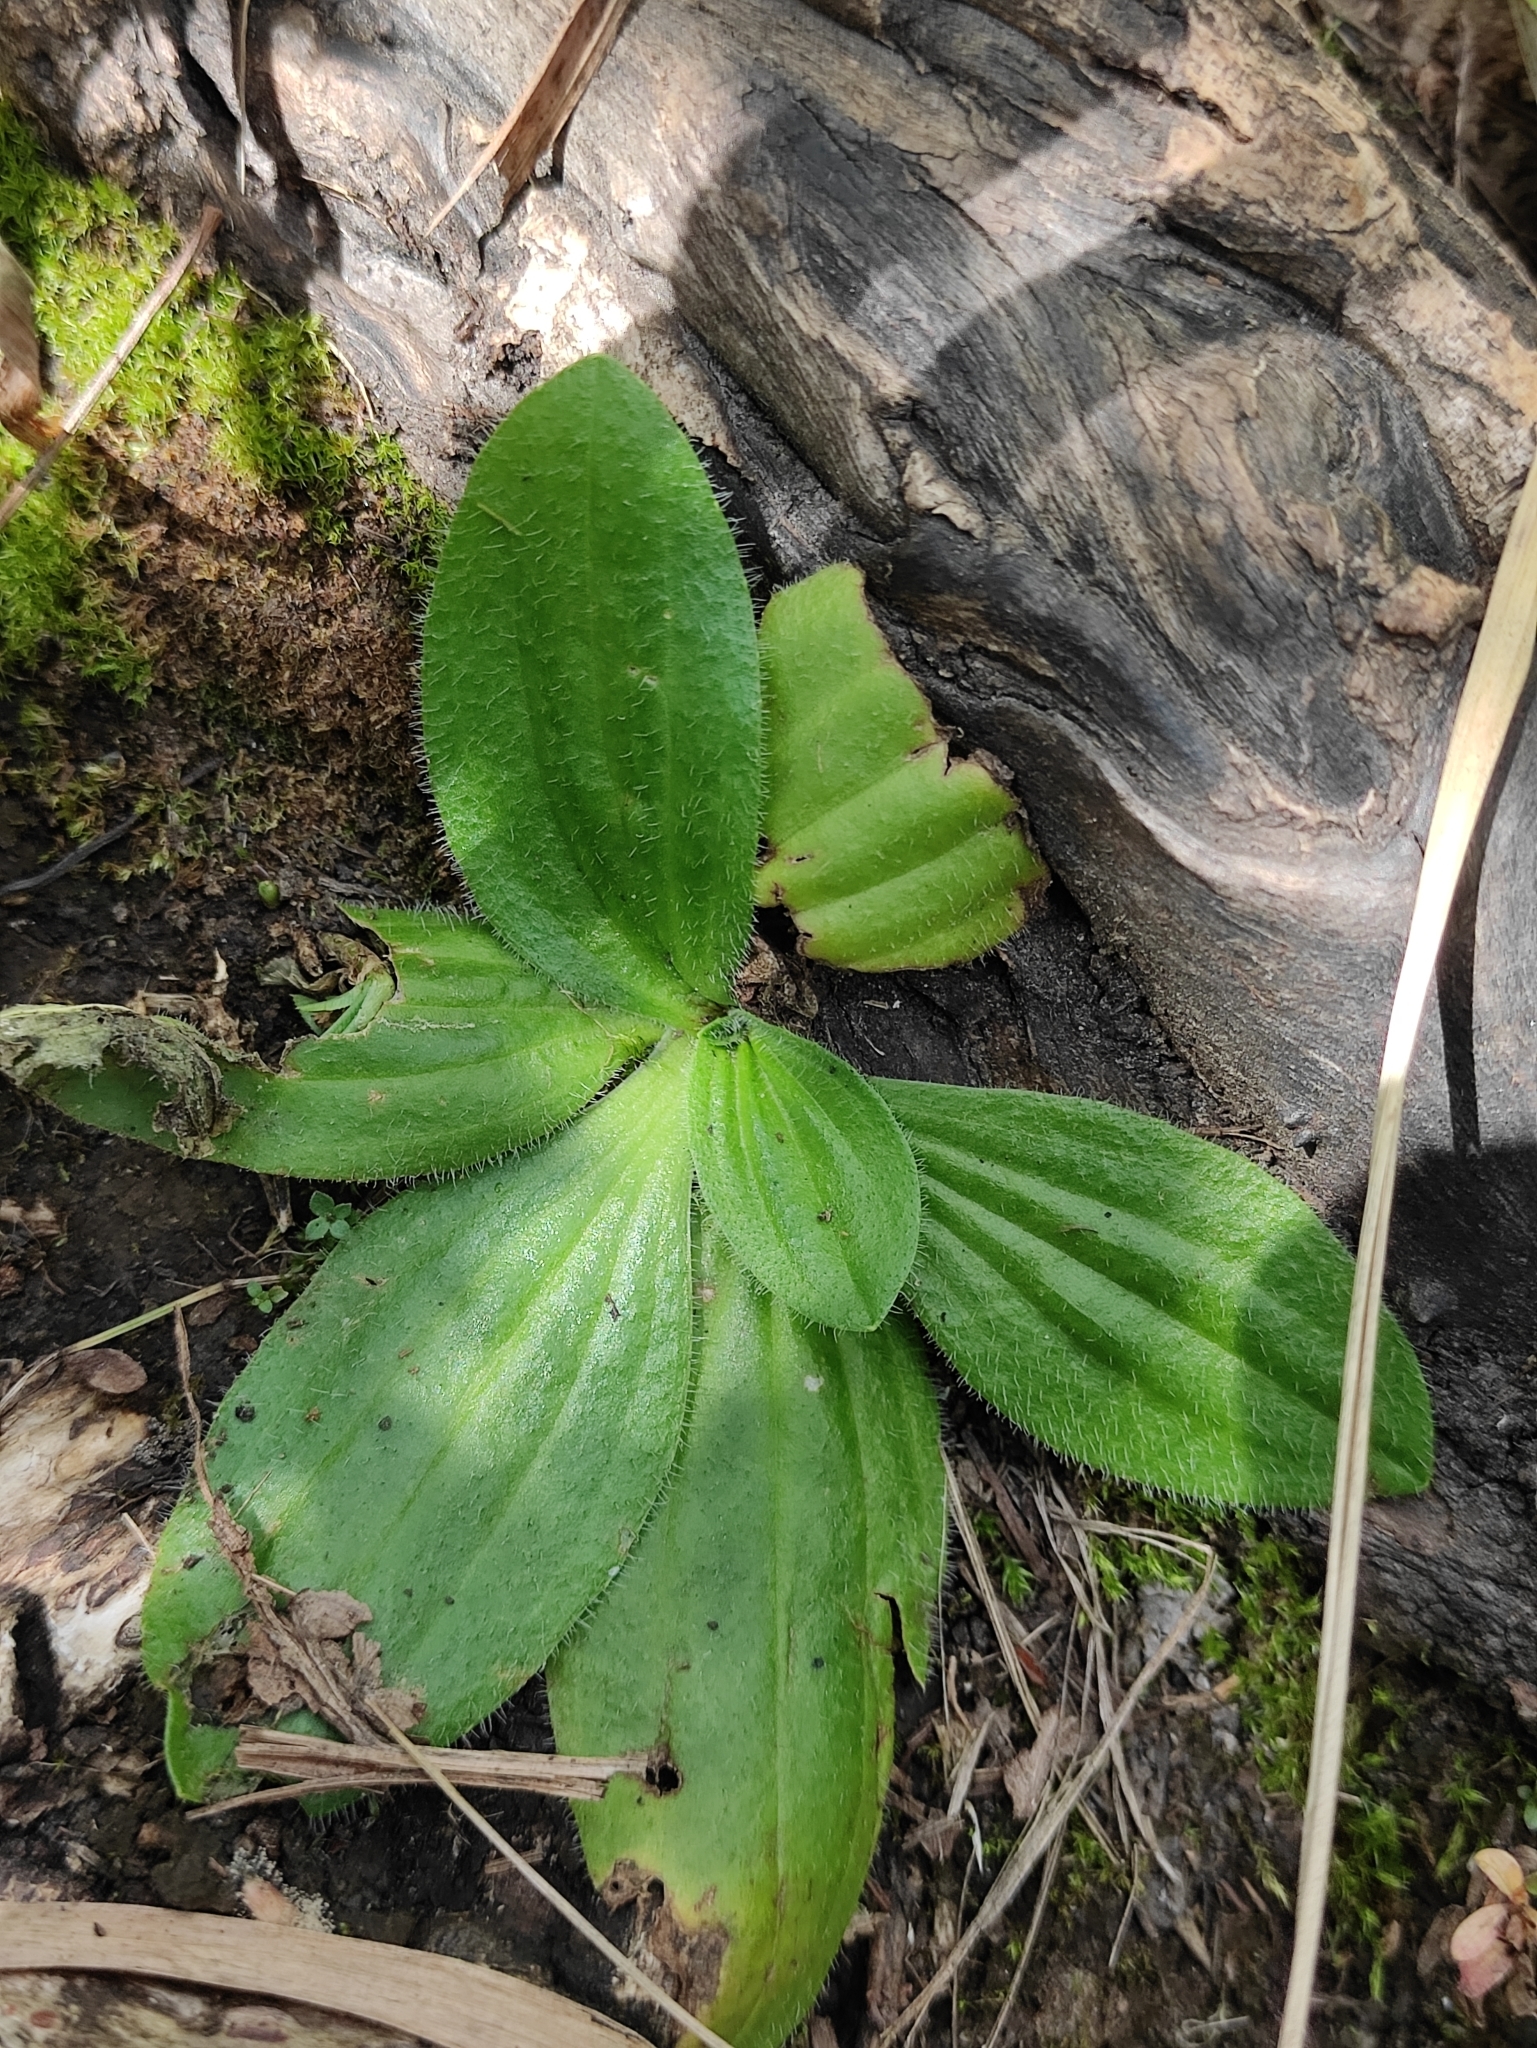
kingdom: Plantae
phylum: Tracheophyta
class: Magnoliopsida
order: Lamiales
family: Plantaginaceae
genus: Plantago
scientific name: Plantago media
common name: Hoary plantain
